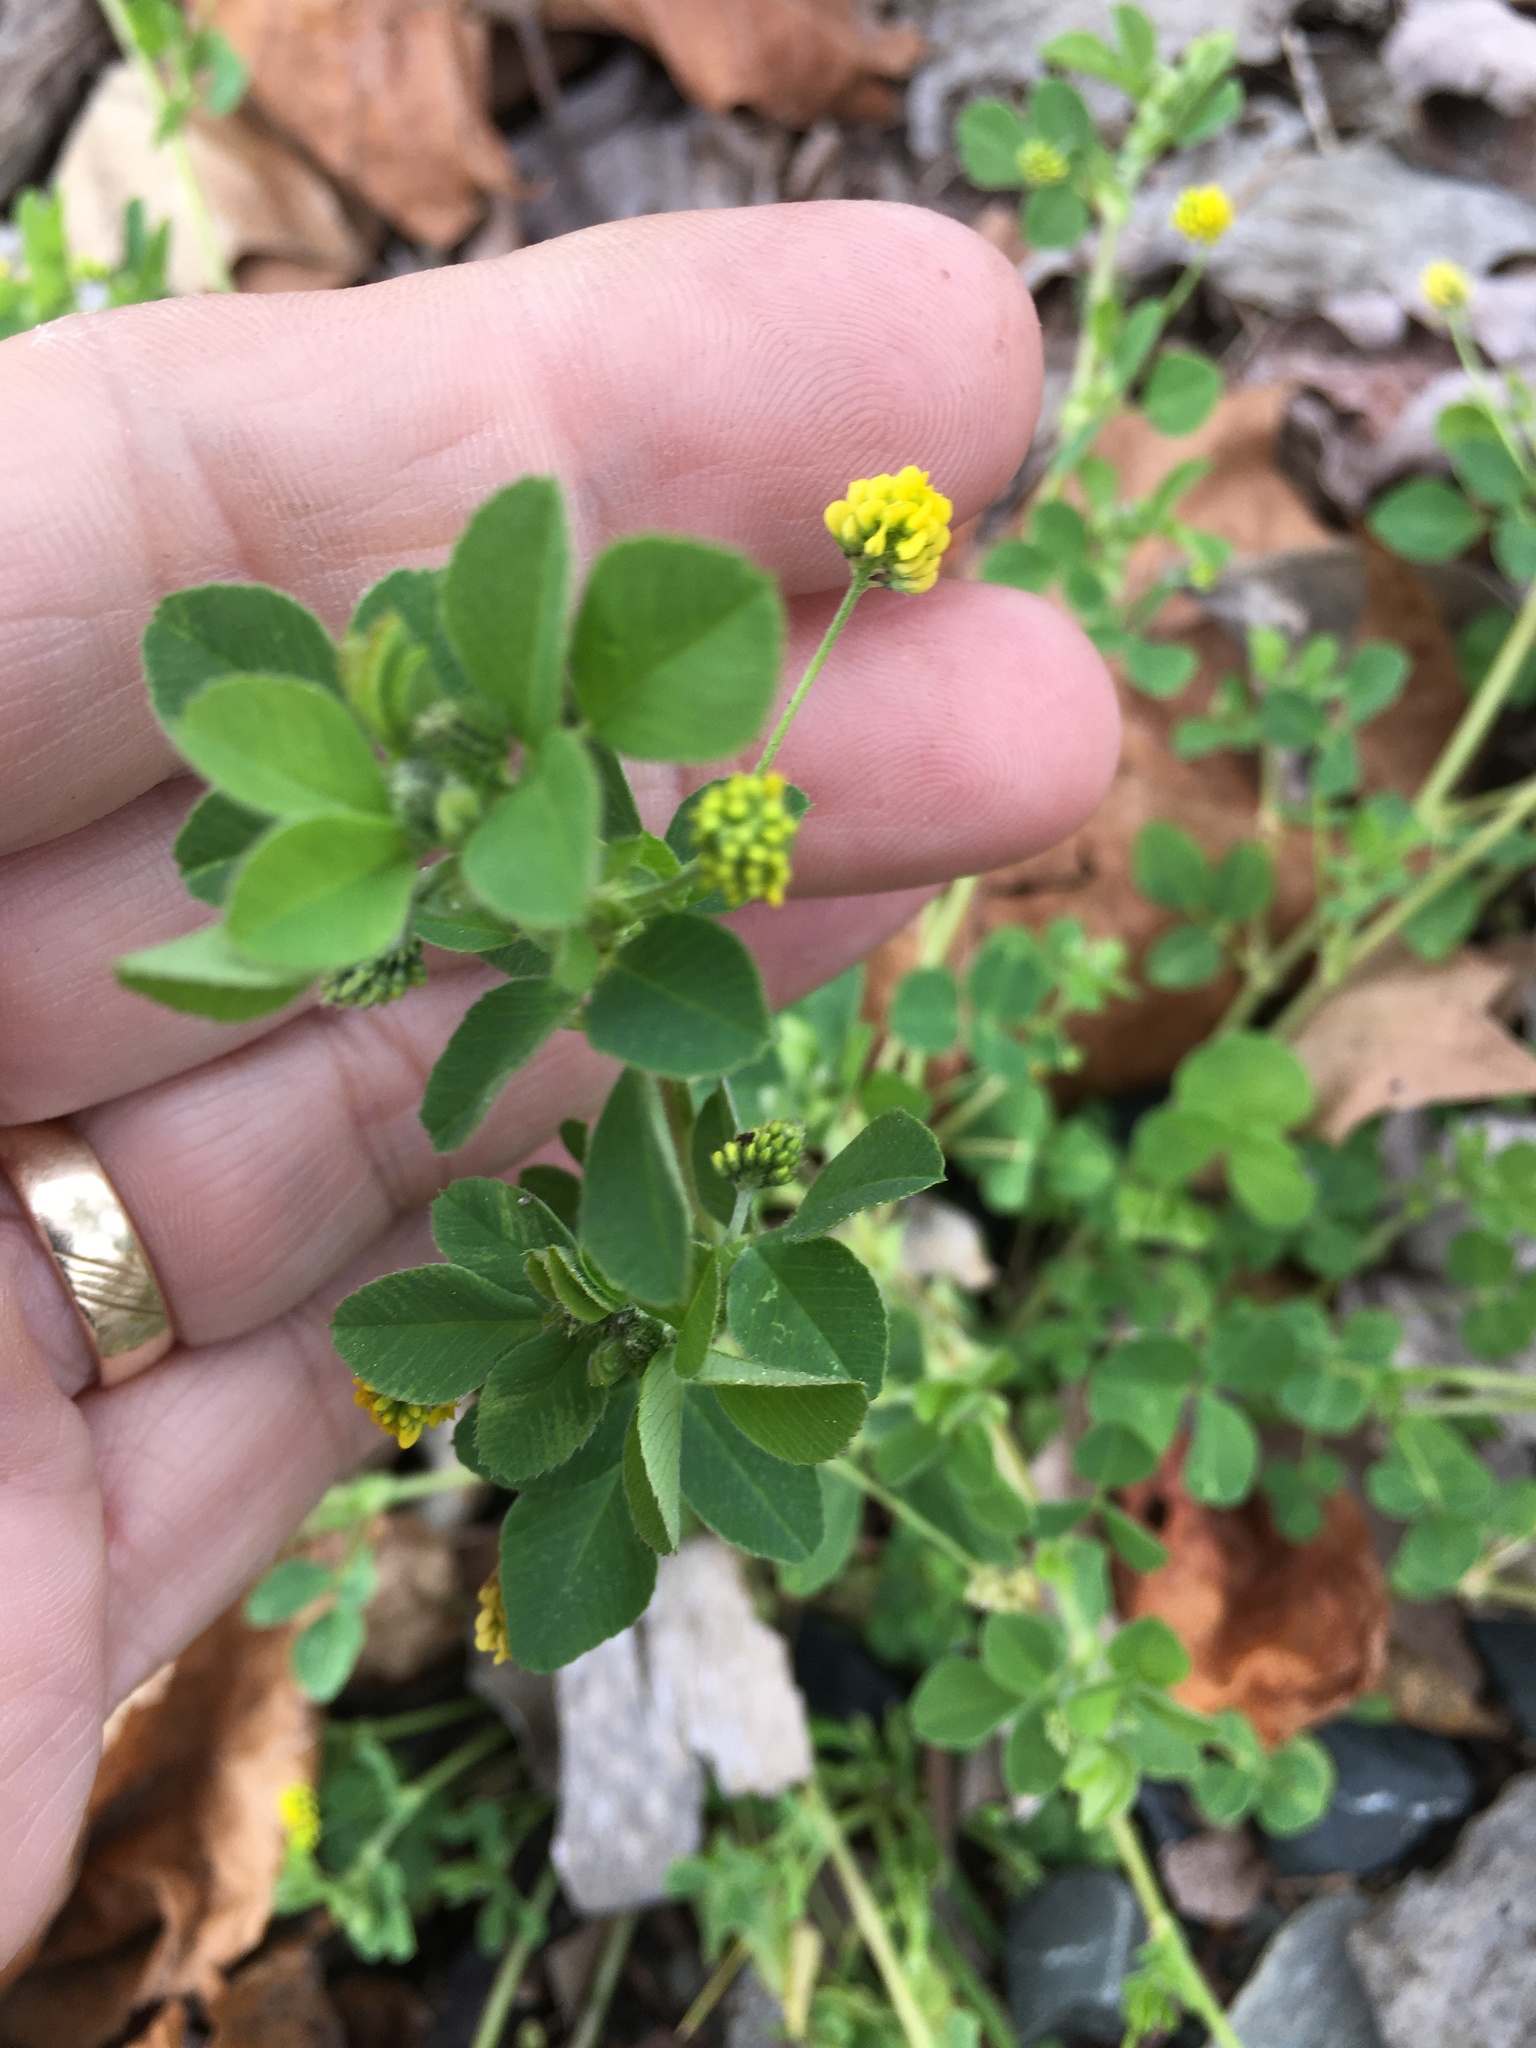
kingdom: Plantae
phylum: Tracheophyta
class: Magnoliopsida
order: Fabales
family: Fabaceae
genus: Medicago
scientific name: Medicago lupulina
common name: Black medick
